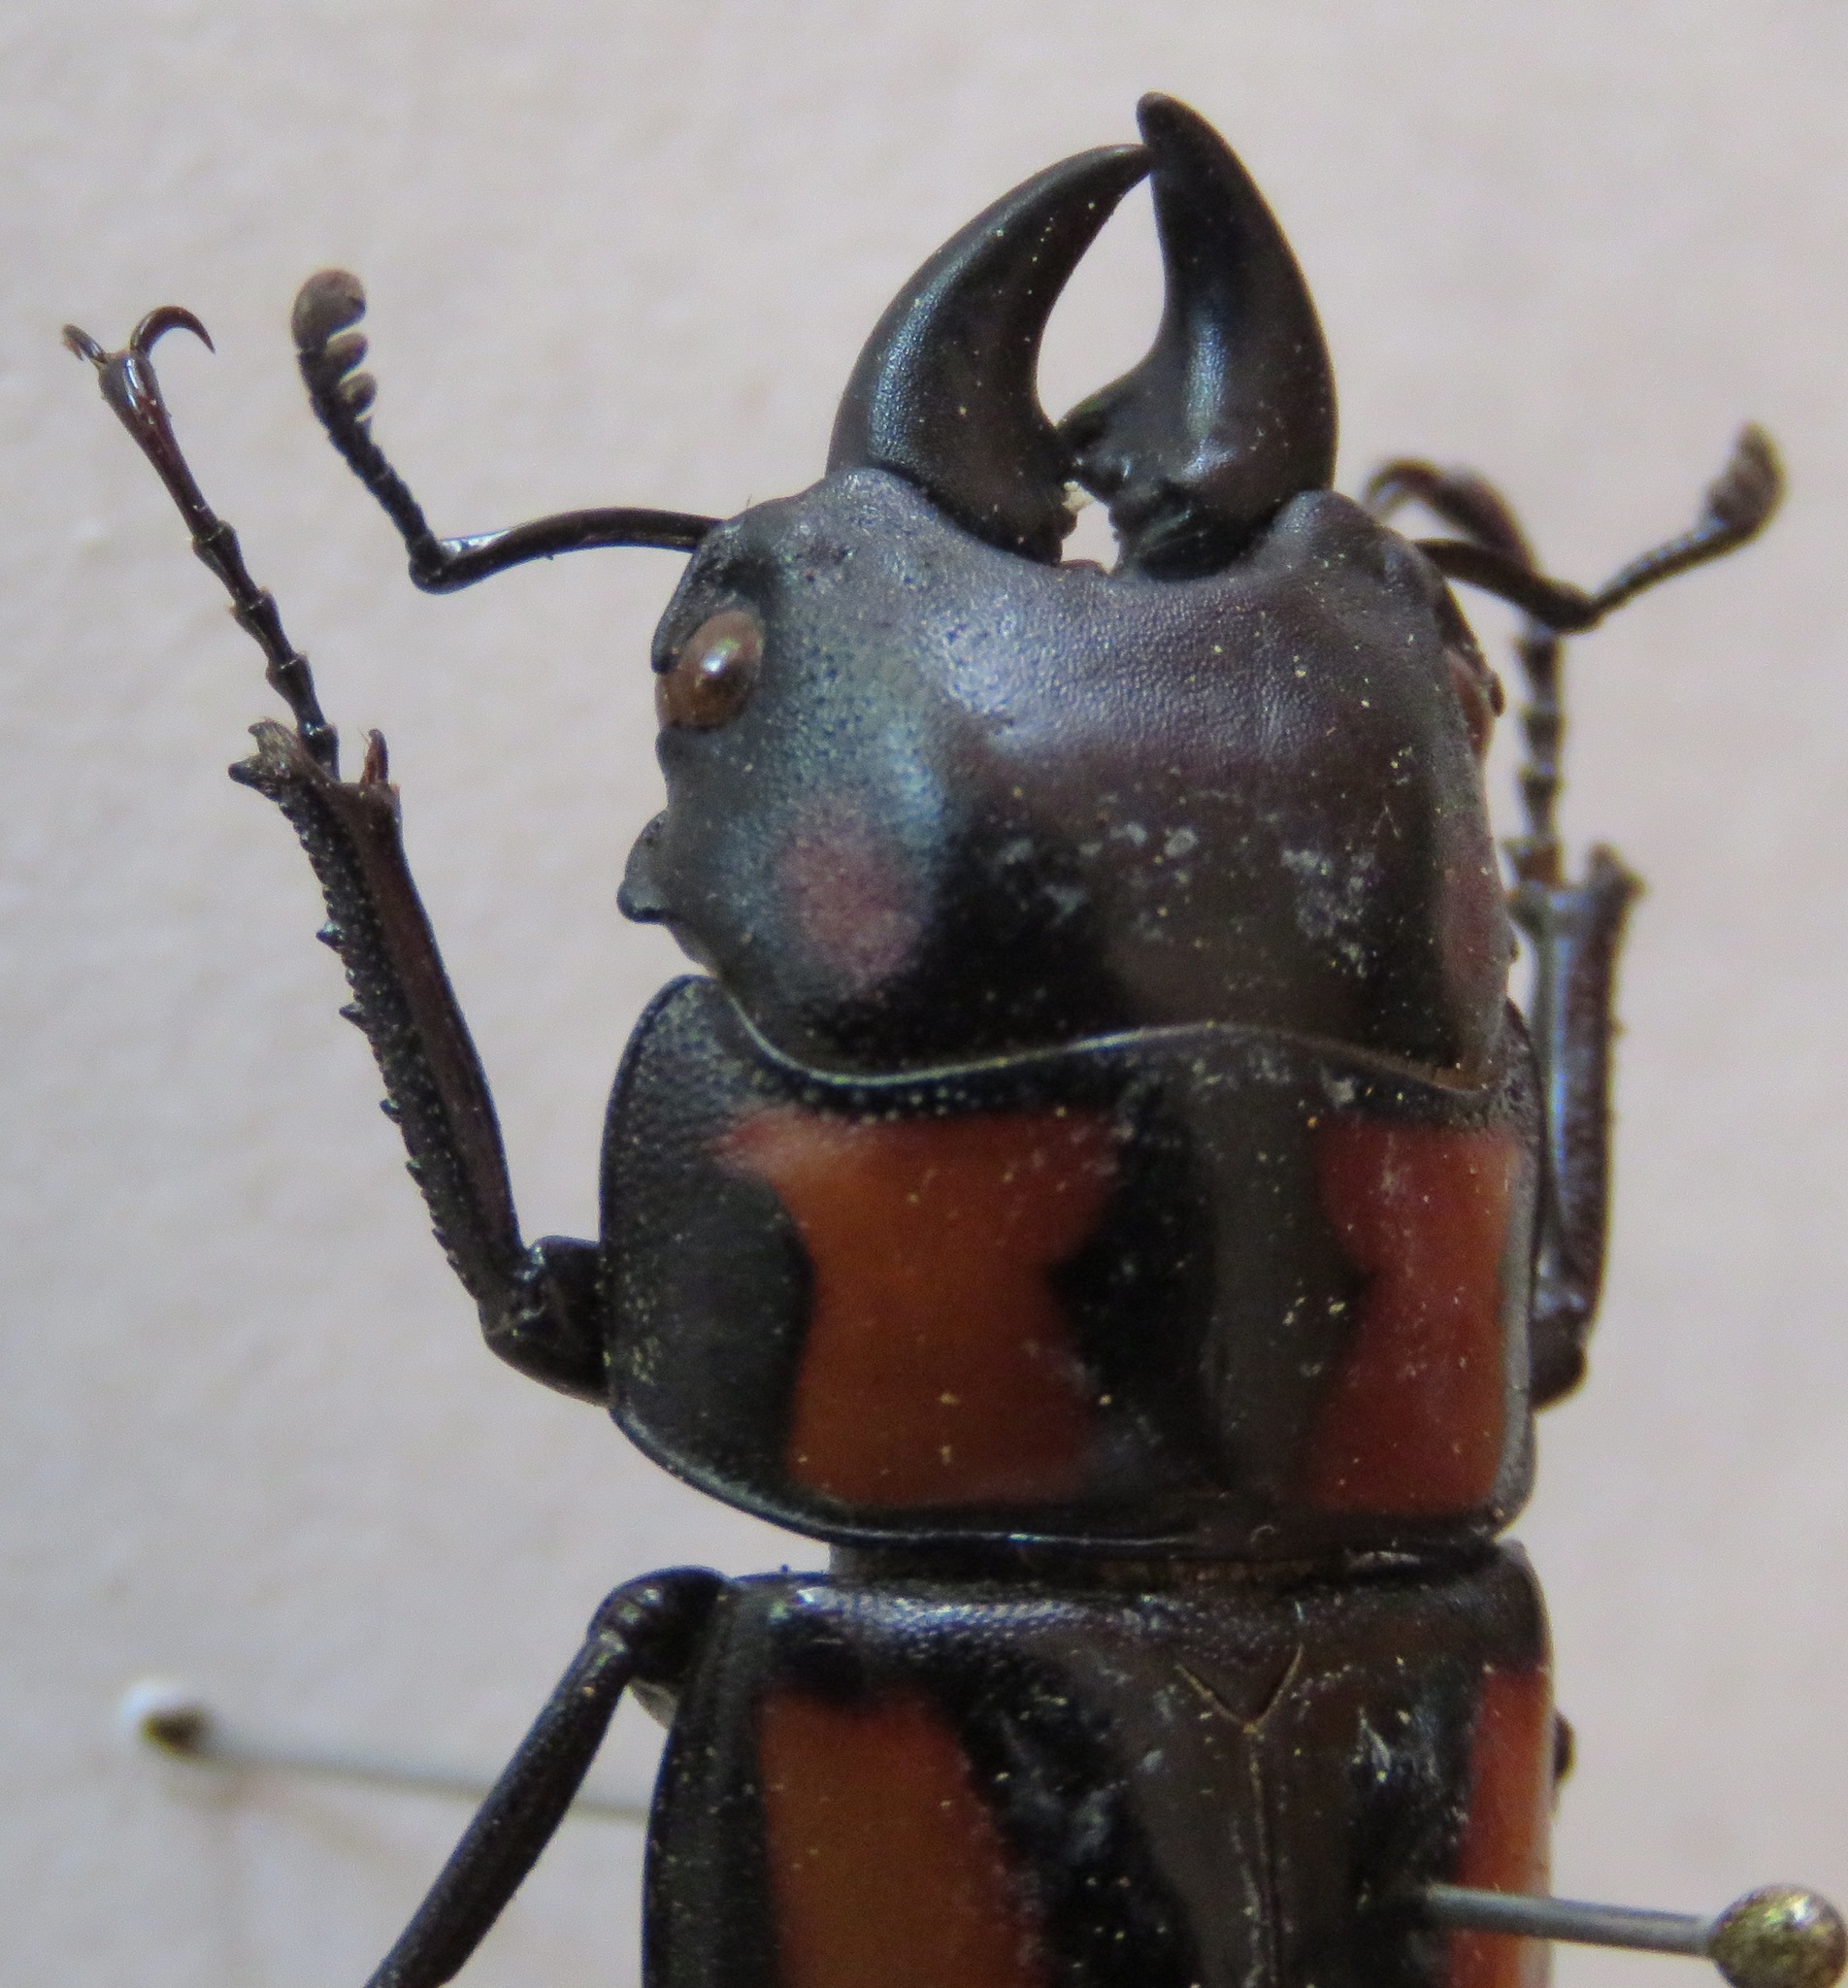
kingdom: Animalia
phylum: Arthropoda
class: Insecta
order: Coleoptera
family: Lucanidae
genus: Prosopocoilus
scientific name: Prosopocoilus biplagiatus
